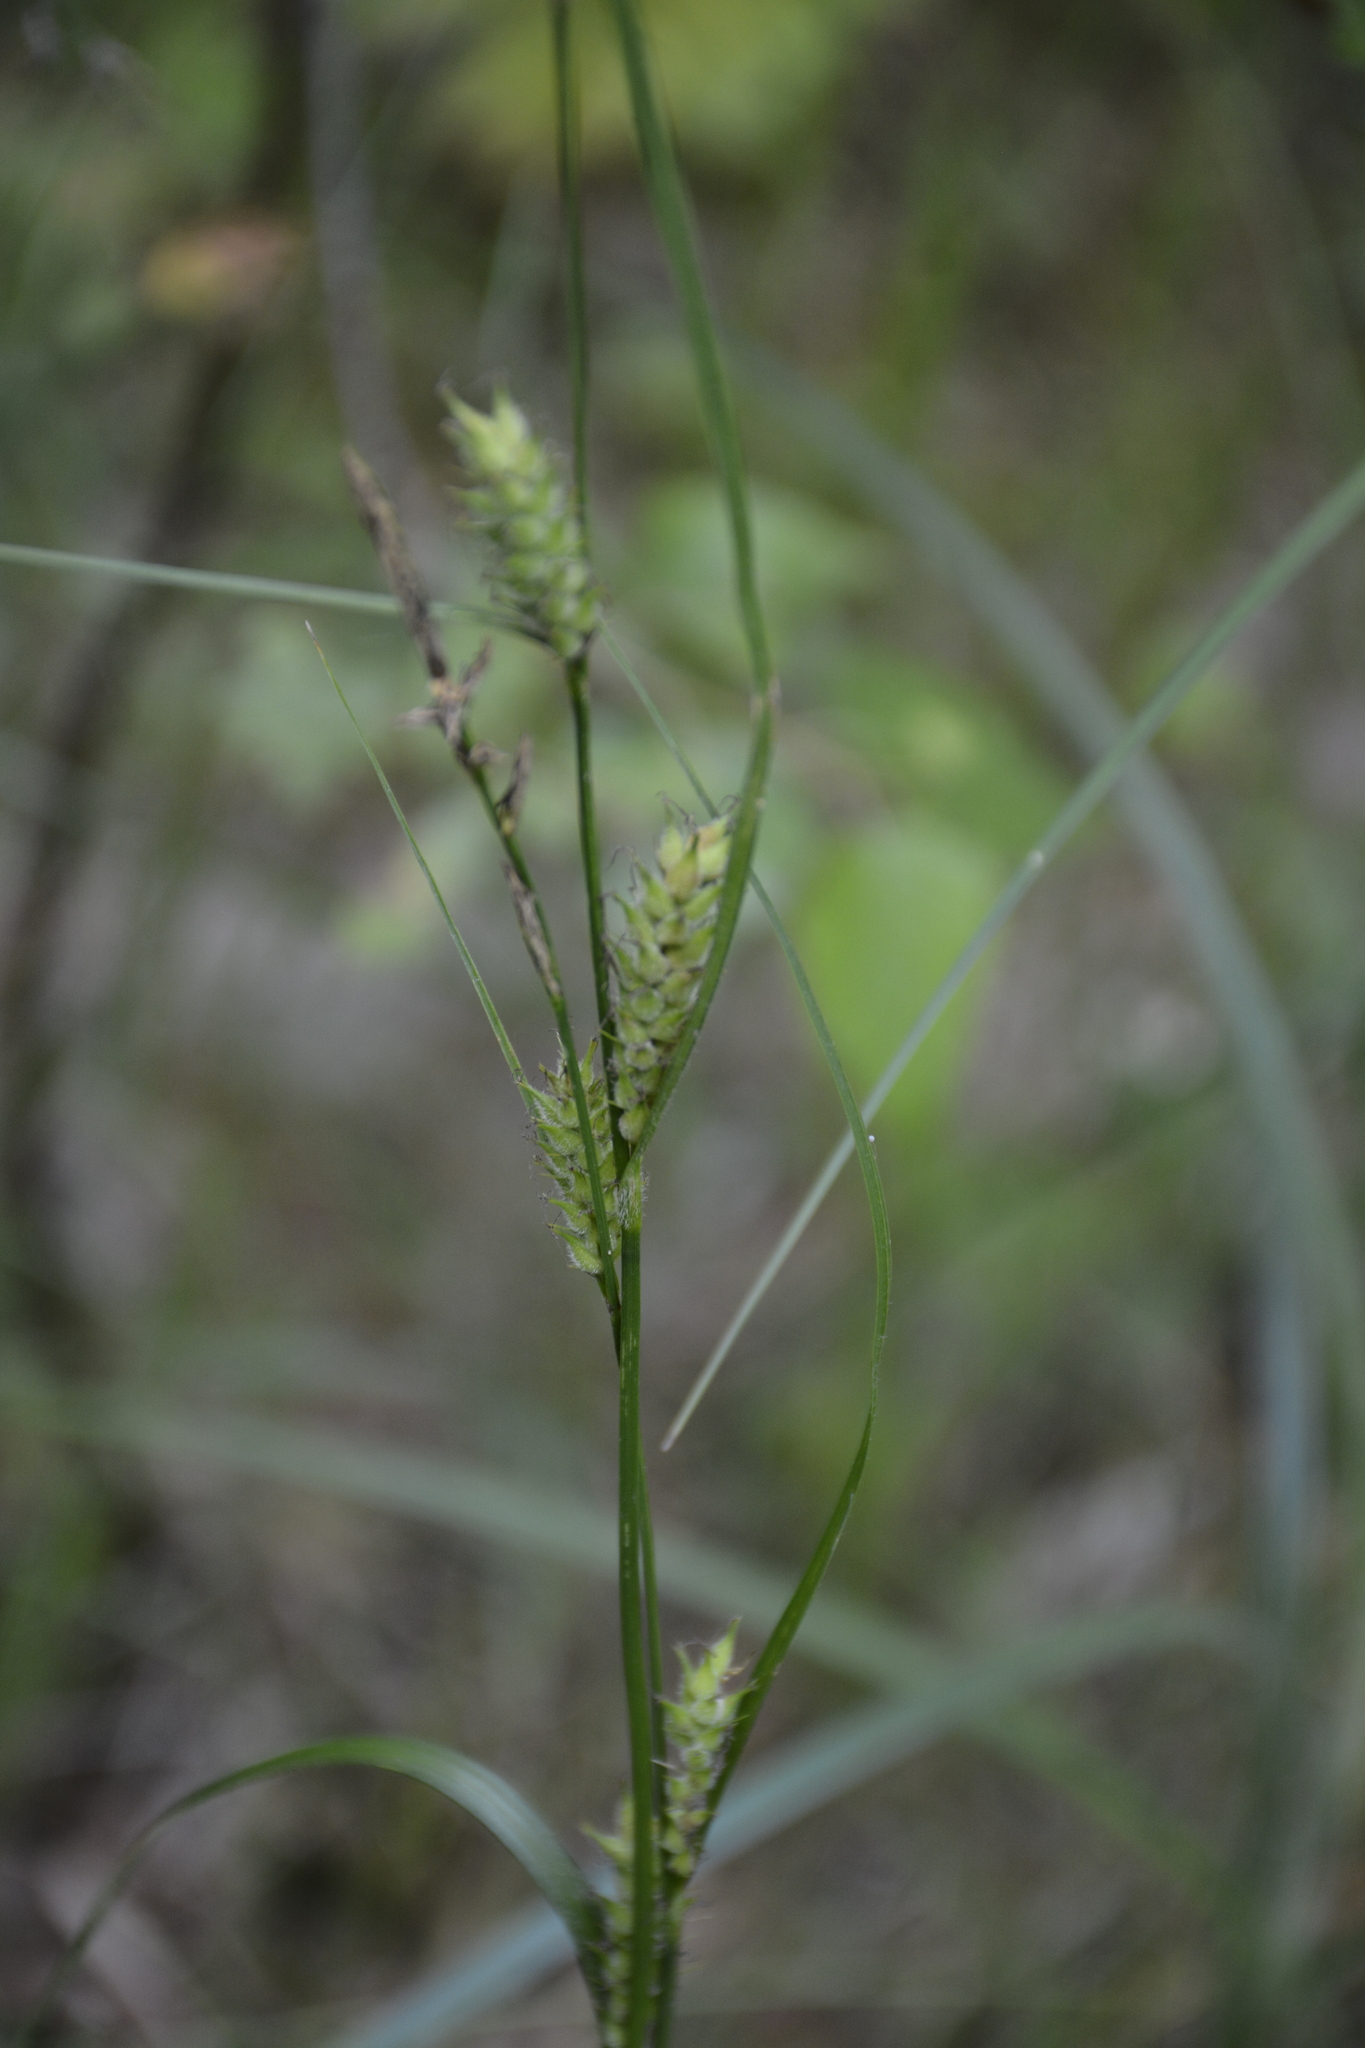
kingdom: Plantae
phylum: Tracheophyta
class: Liliopsida
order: Poales
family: Cyperaceae
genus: Carex
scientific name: Carex hirta
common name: Hairy sedge
